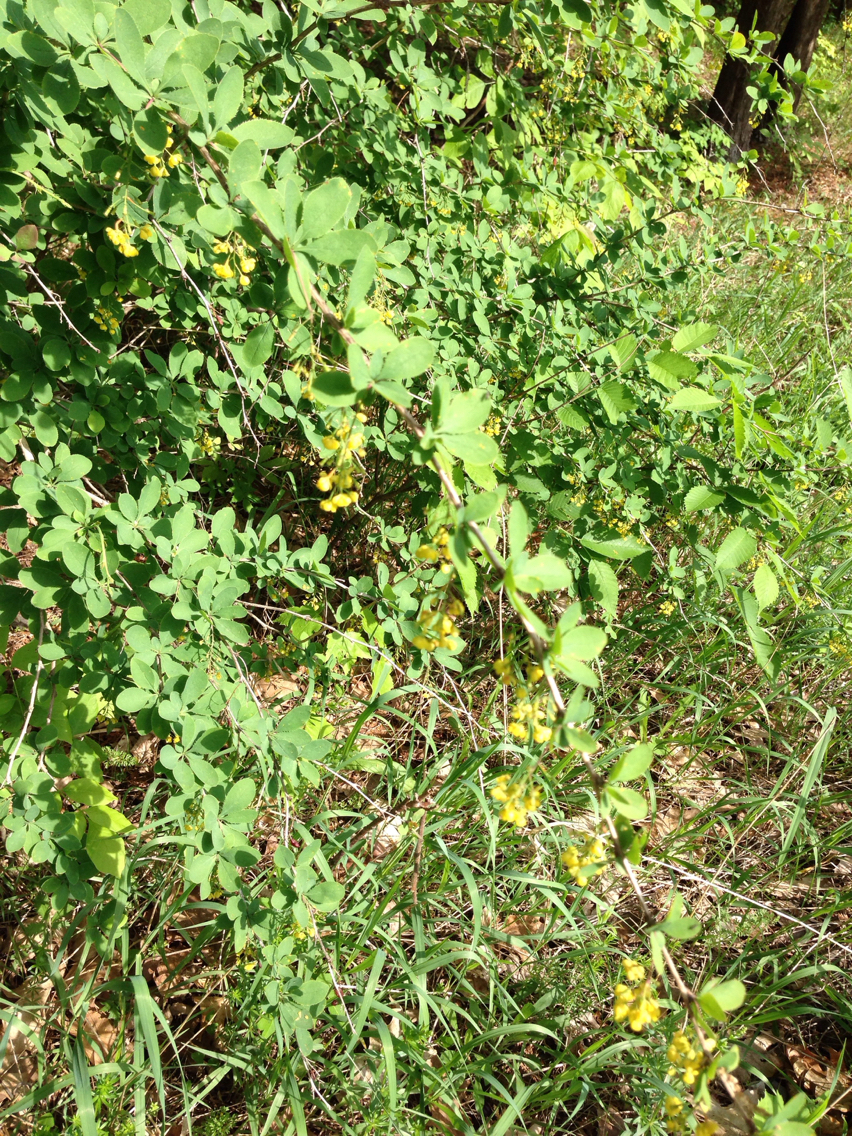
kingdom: Plantae
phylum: Tracheophyta
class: Magnoliopsida
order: Ranunculales
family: Berberidaceae
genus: Berberis
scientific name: Berberis vulgaris
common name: Barberry
